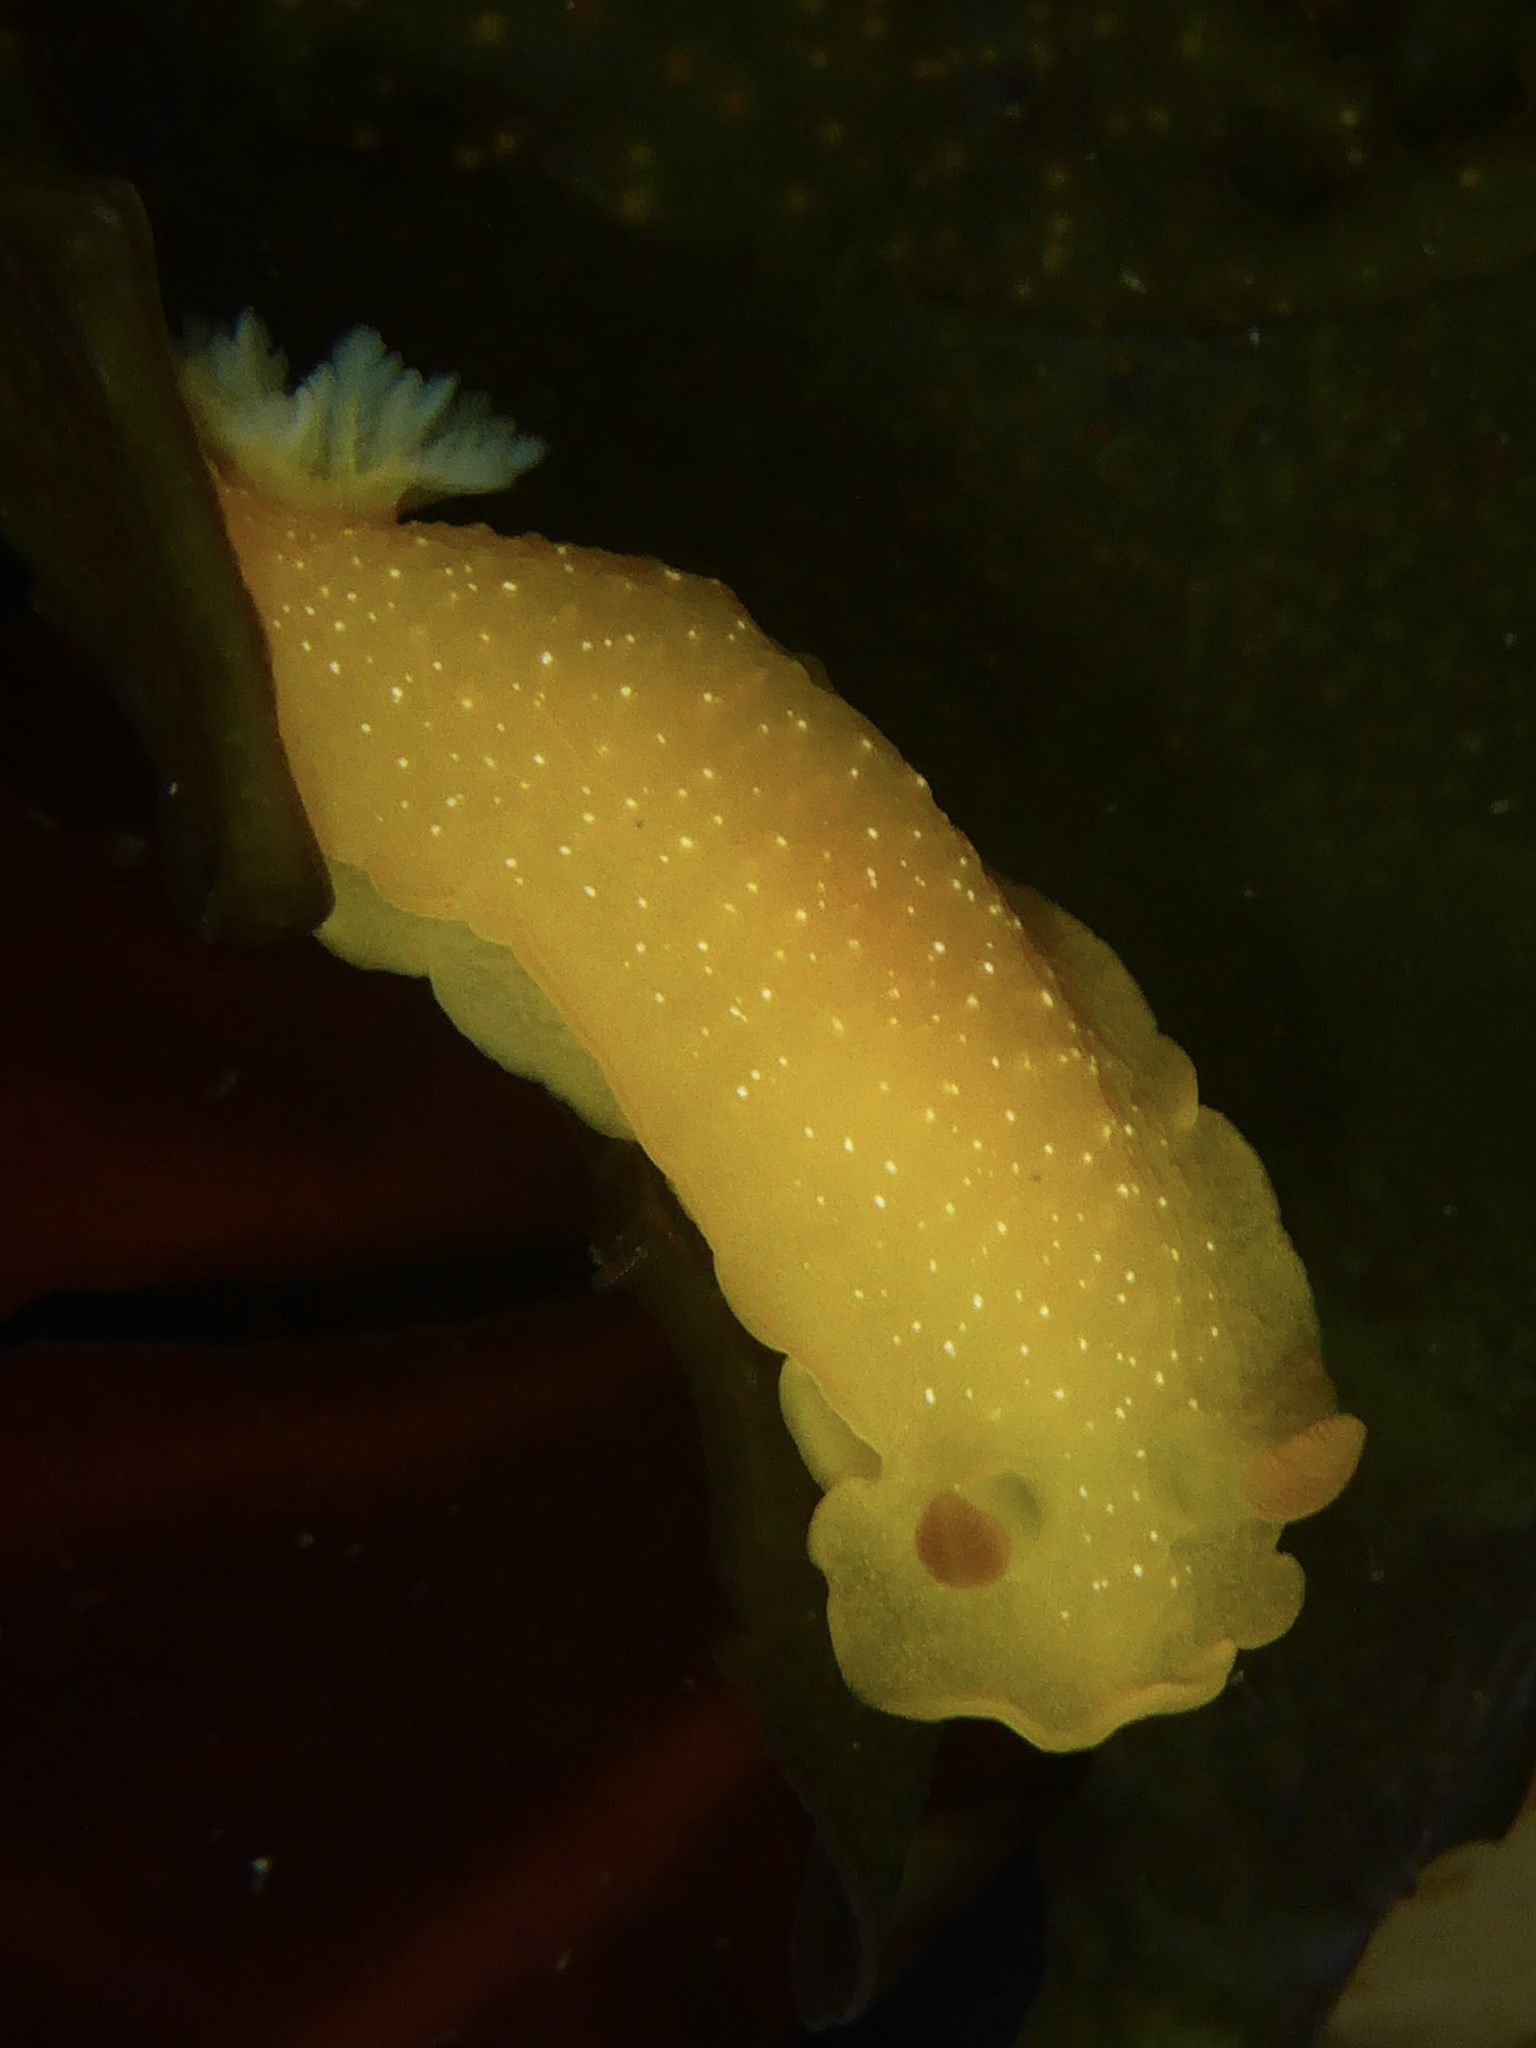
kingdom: Animalia
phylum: Mollusca
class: Gastropoda
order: Nudibranchia
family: Dendrodorididae
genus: Doriopsilla
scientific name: Doriopsilla fulva
